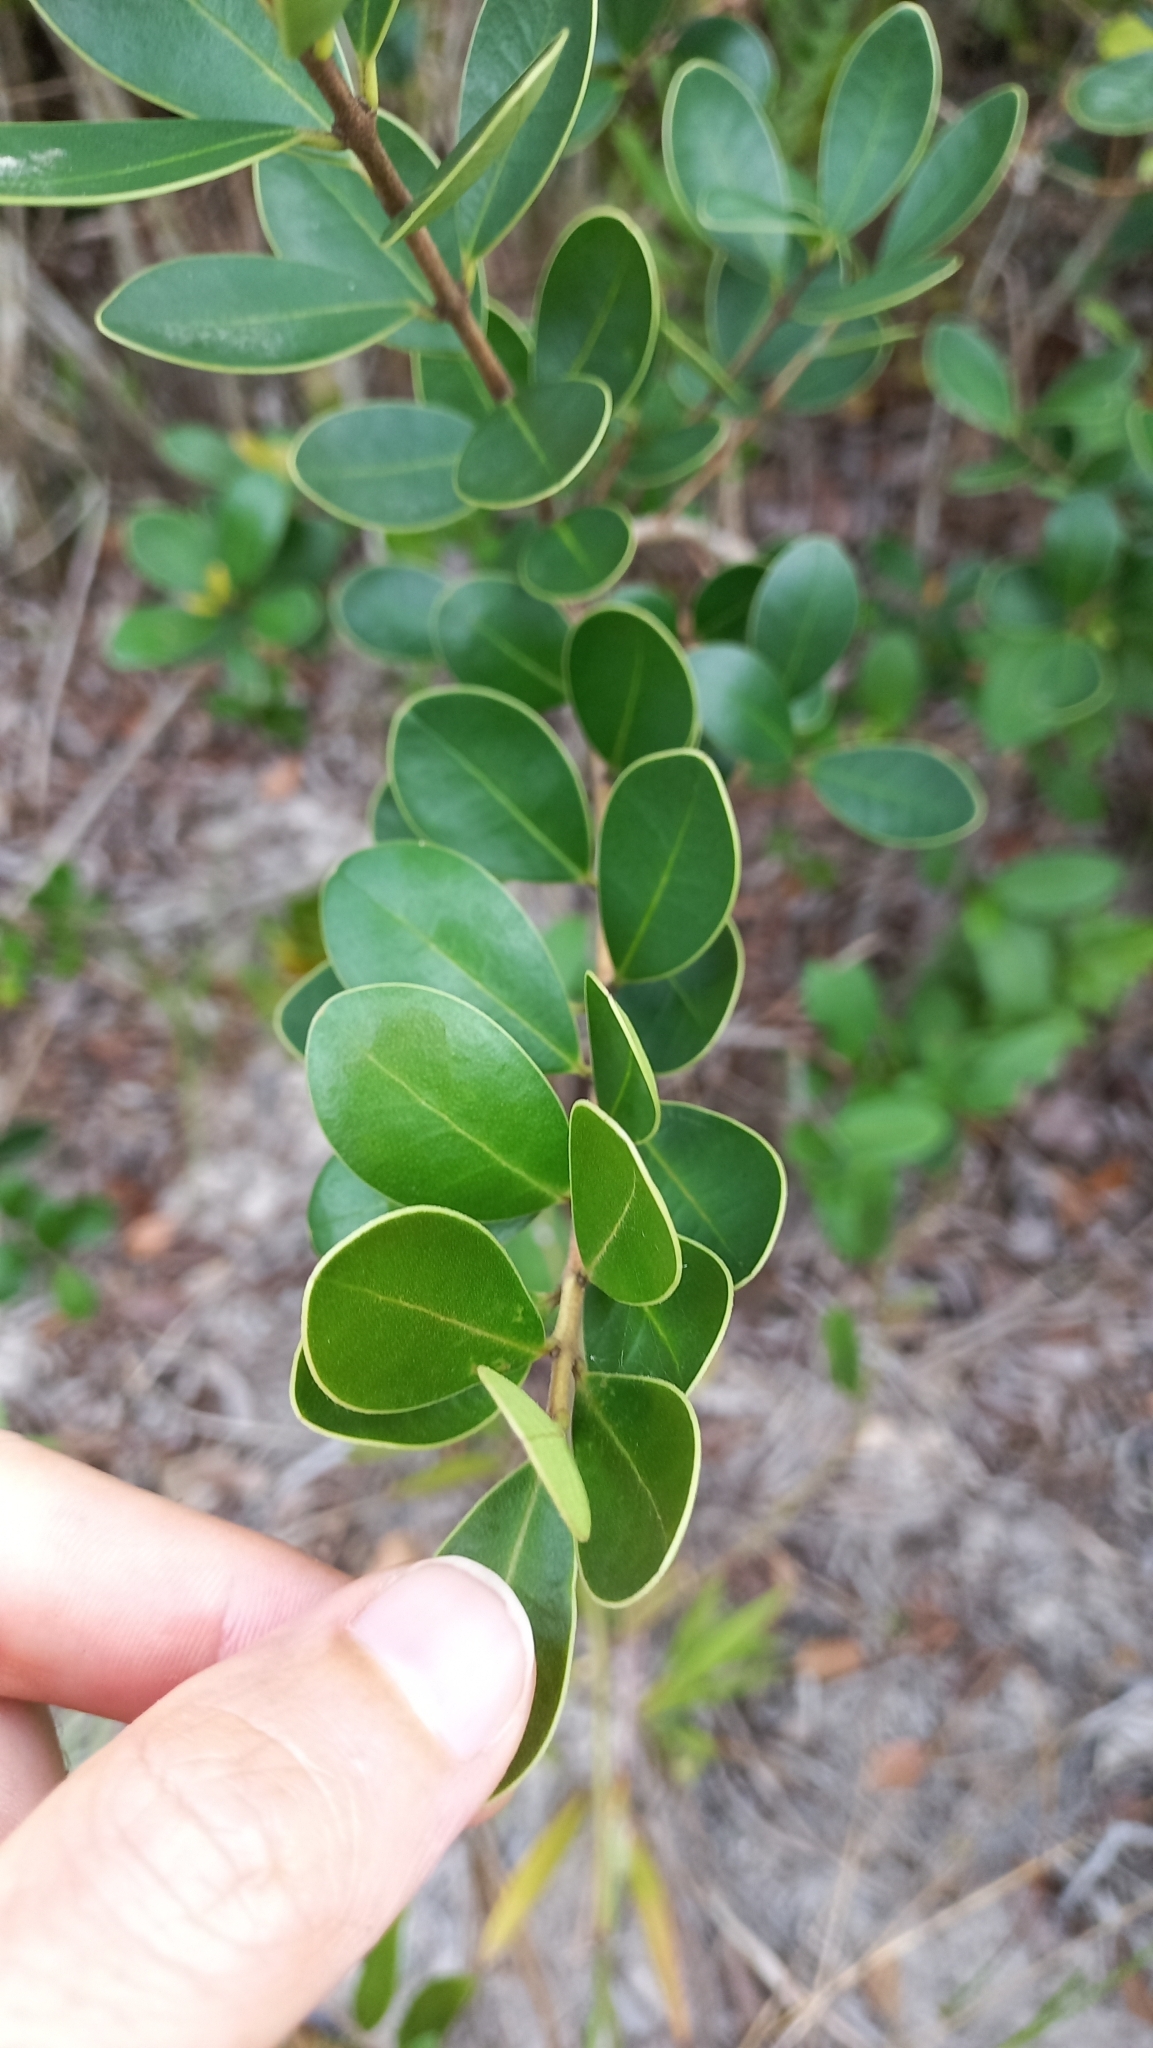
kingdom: Plantae
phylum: Tracheophyta
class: Magnoliopsida
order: Myrtales
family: Myrtaceae
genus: Eugenia
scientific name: Eugenia speciosa
